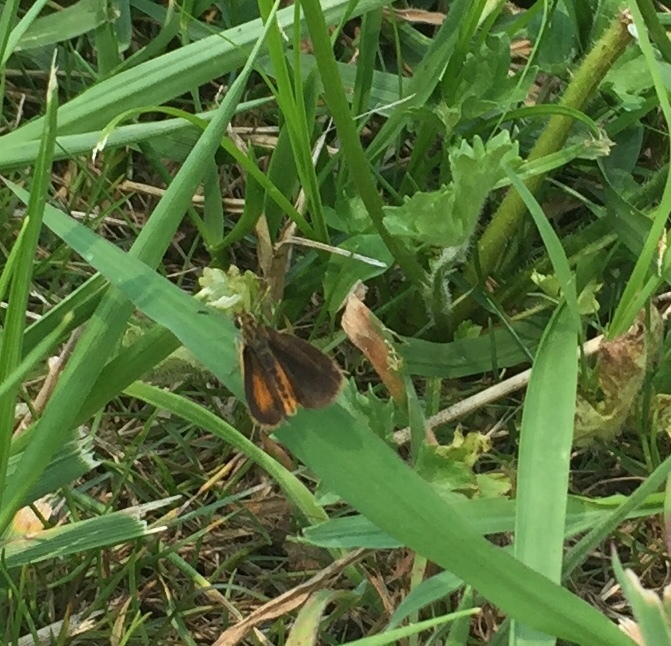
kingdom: Animalia
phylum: Arthropoda
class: Insecta
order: Lepidoptera
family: Hesperiidae
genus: Ancyloxypha
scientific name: Ancyloxypha numitor
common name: Least skipper
